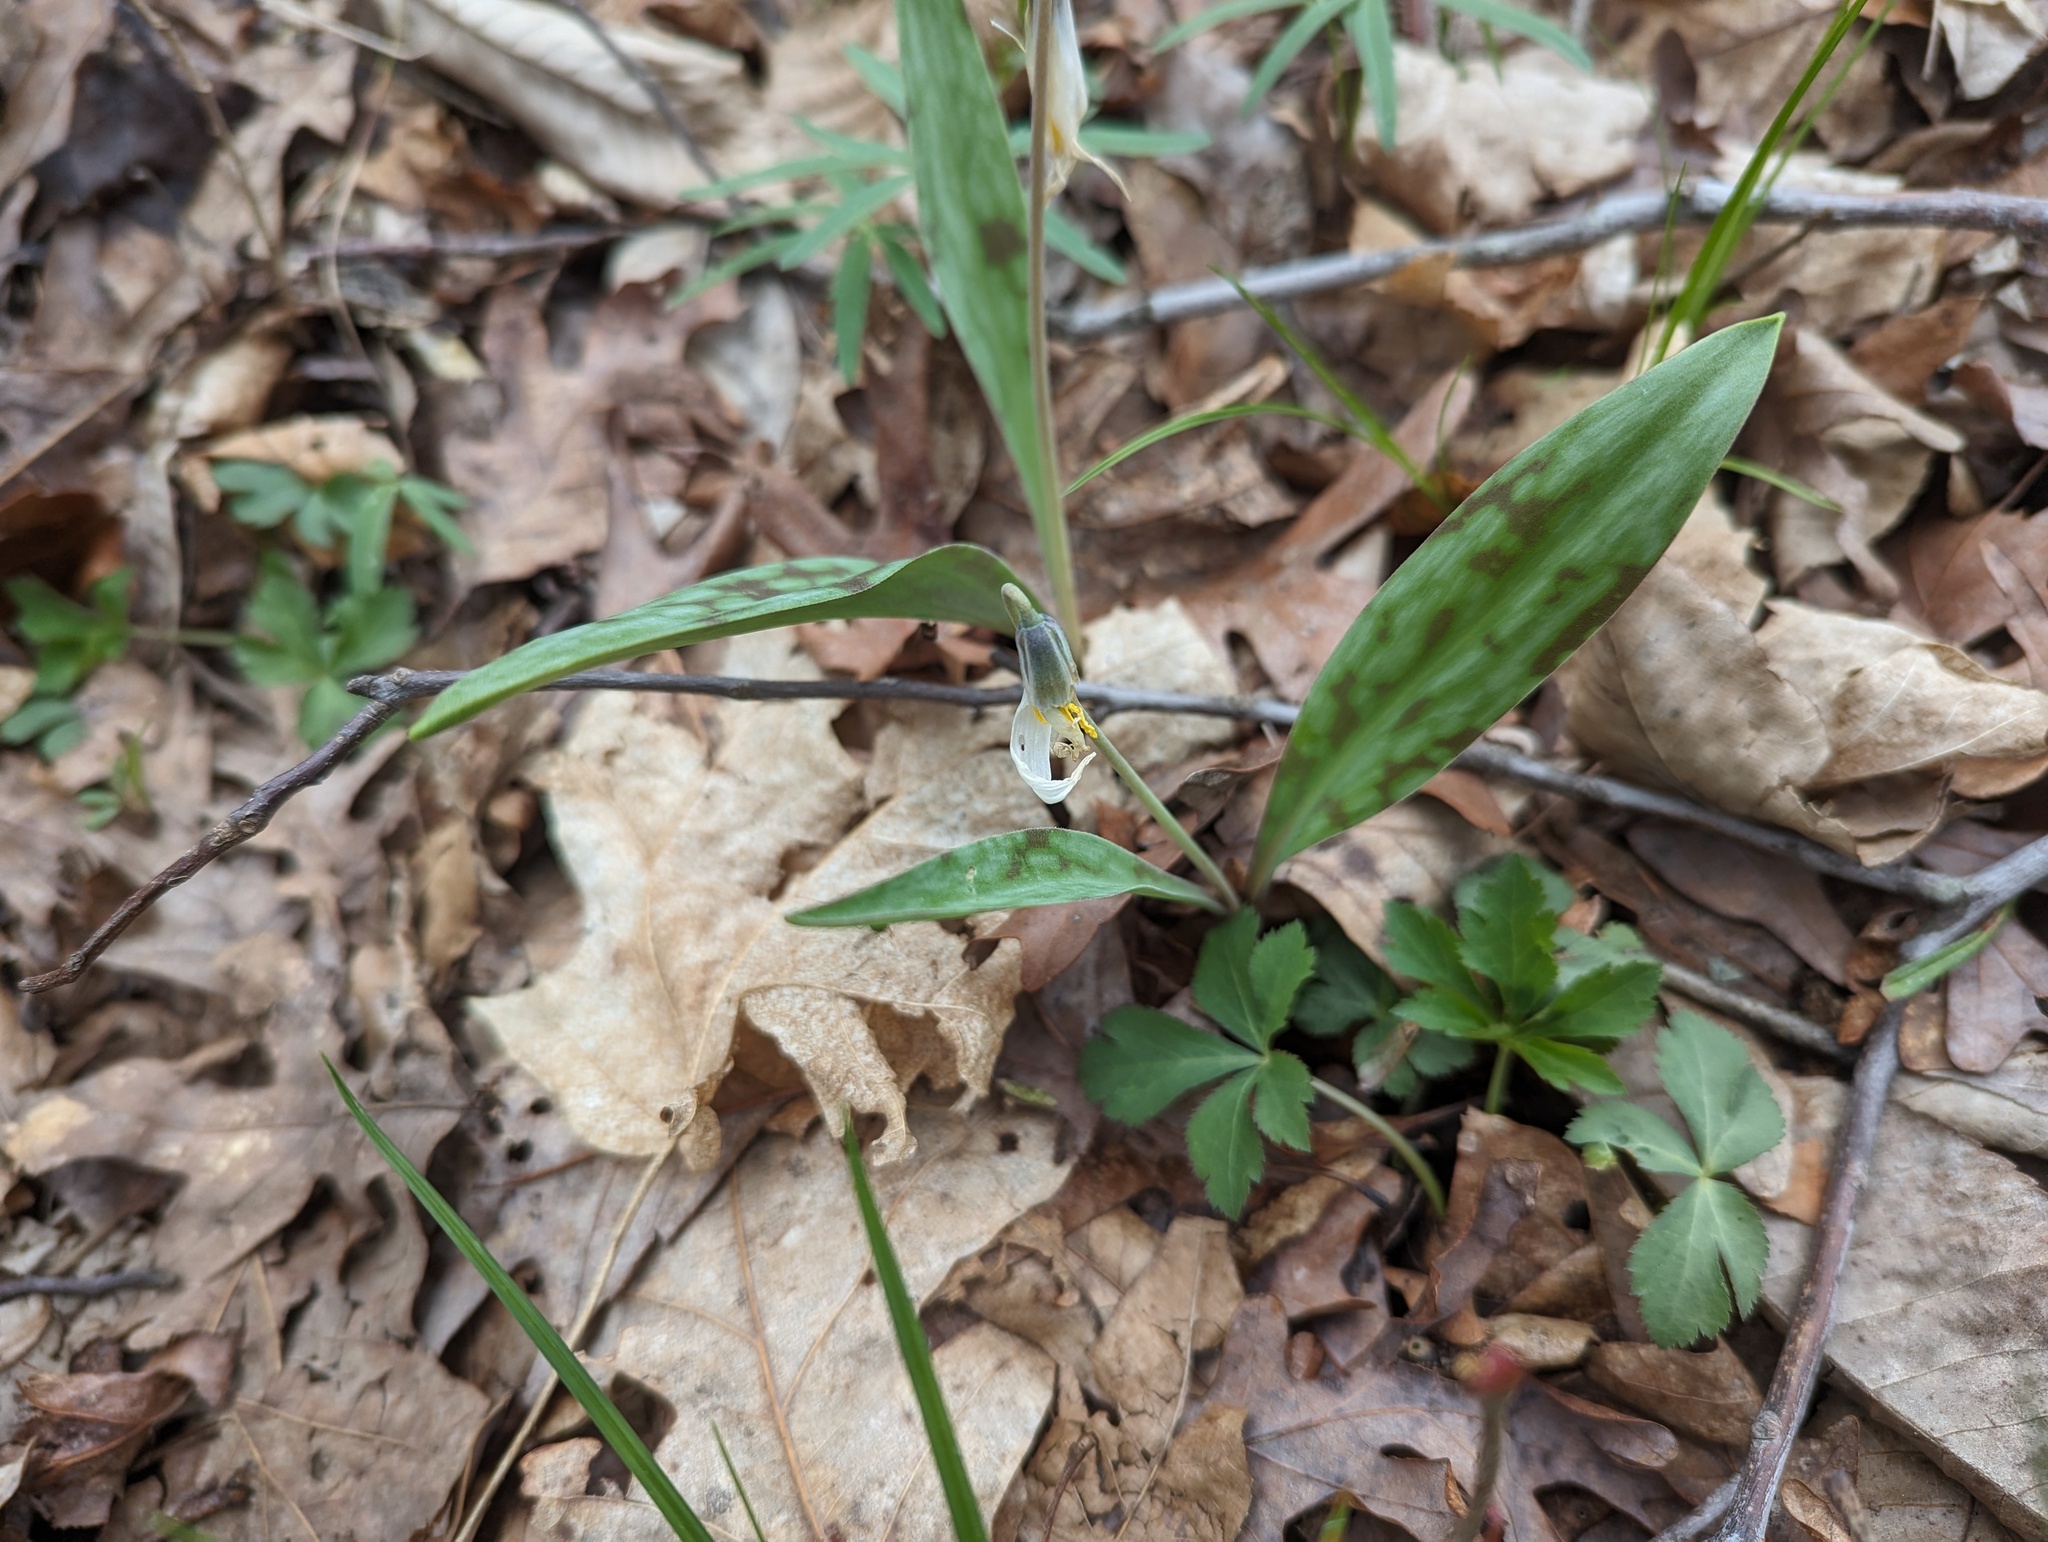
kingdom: Plantae
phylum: Tracheophyta
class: Liliopsida
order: Liliales
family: Liliaceae
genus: Erythronium
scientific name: Erythronium albidum
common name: White trout-lily
